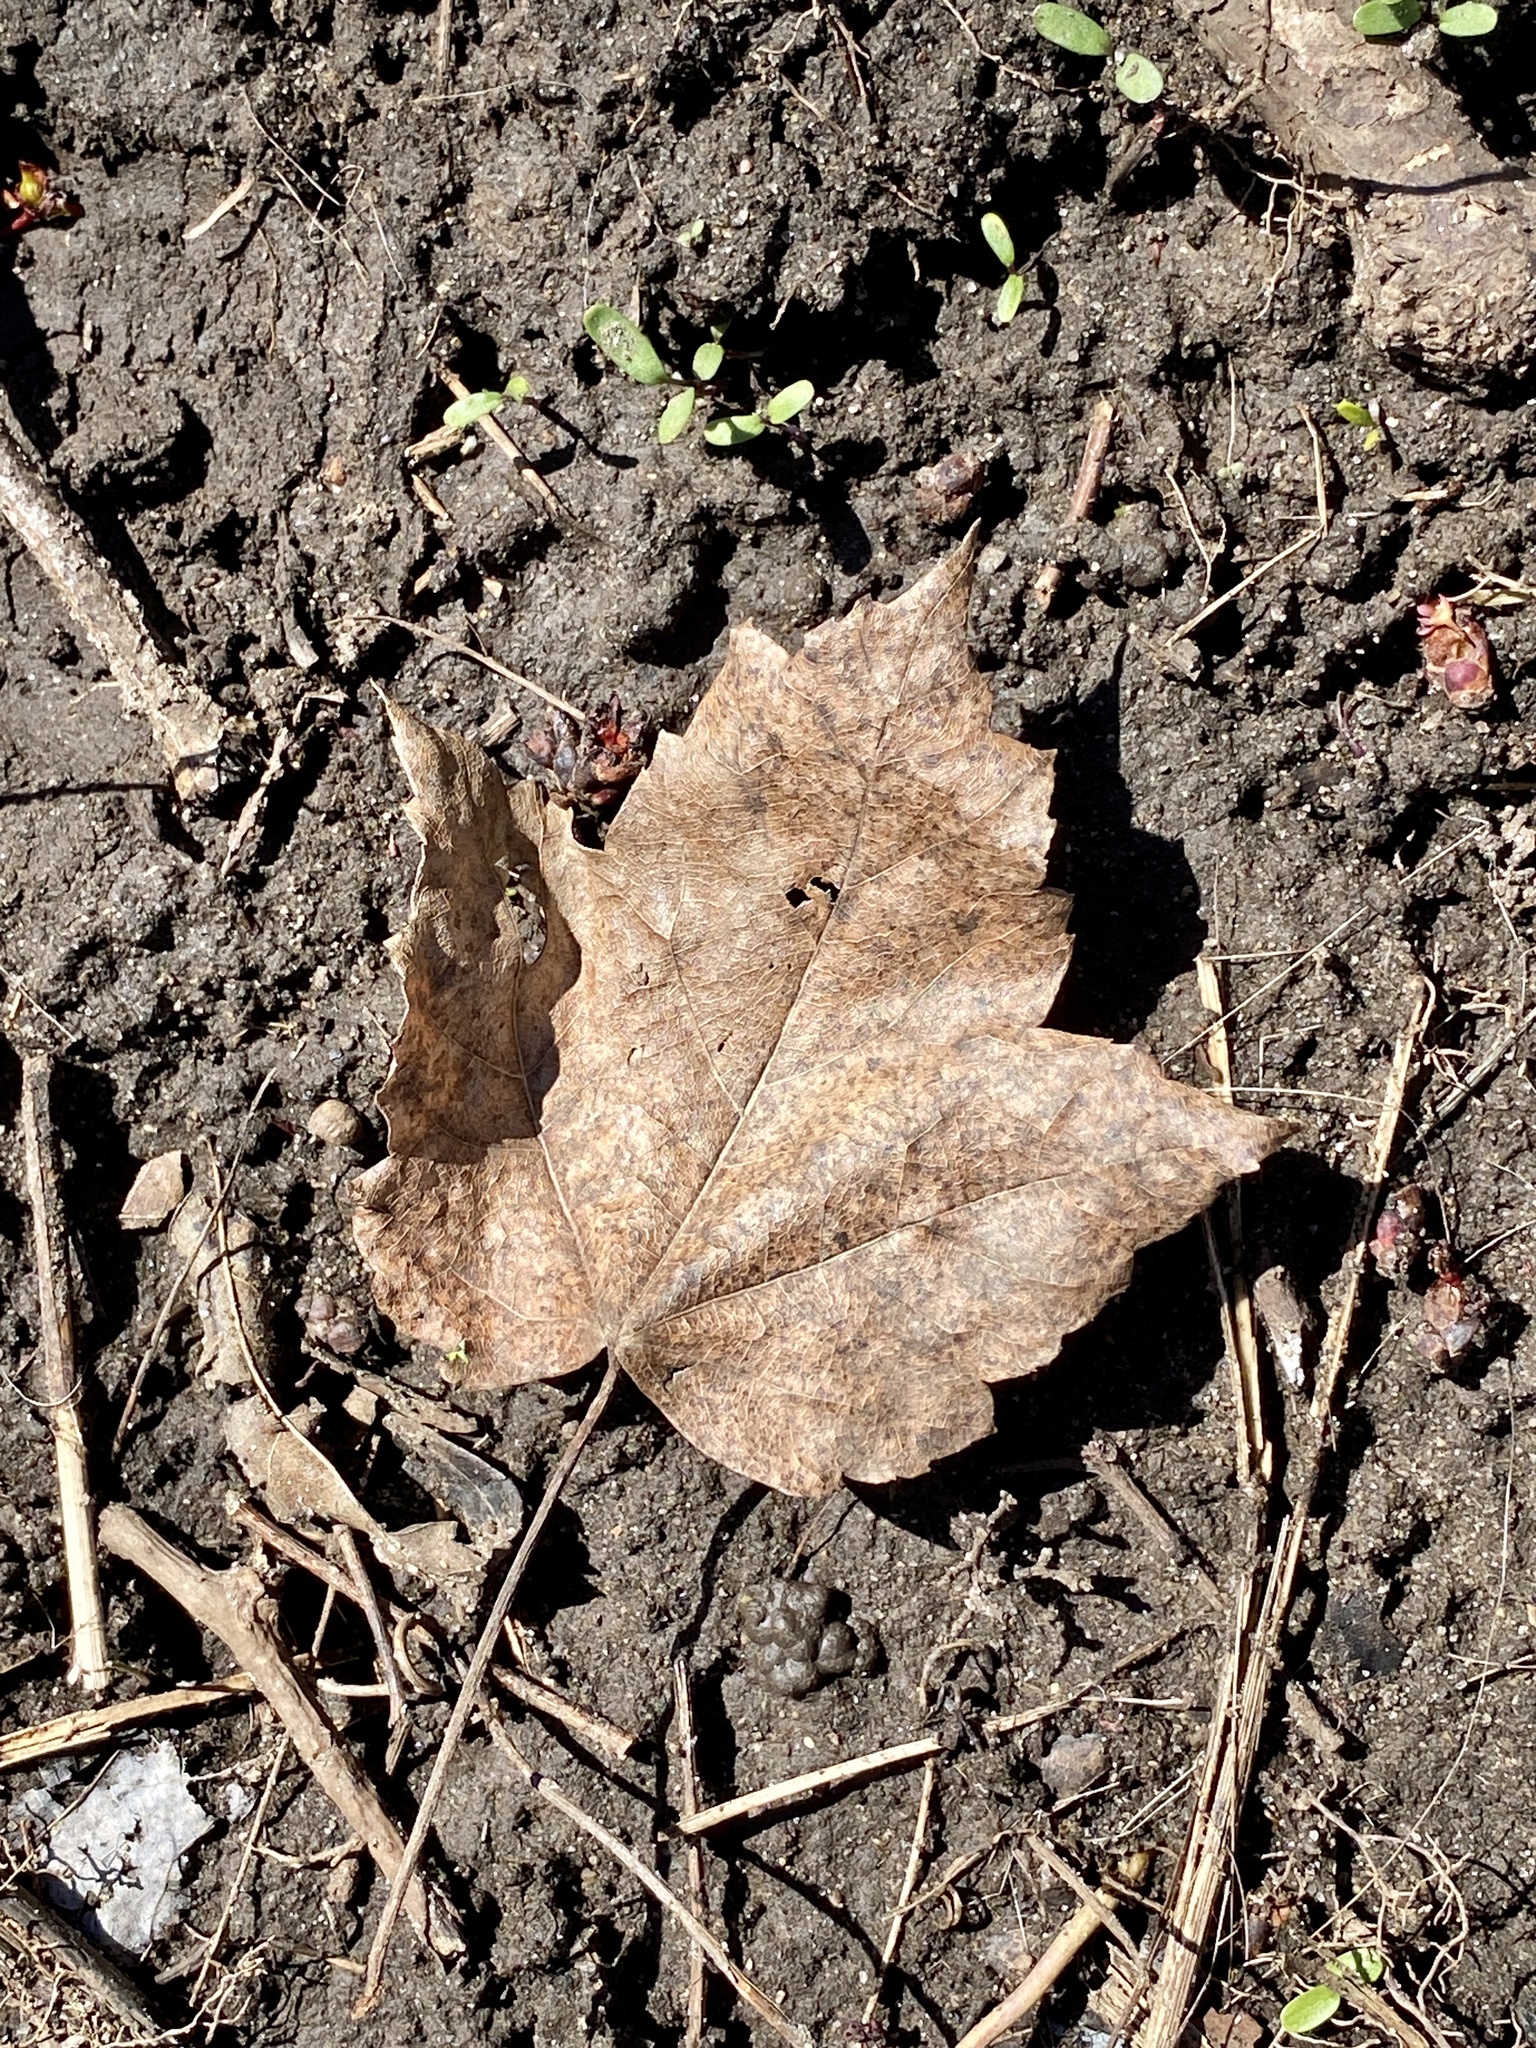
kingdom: Plantae
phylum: Tracheophyta
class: Magnoliopsida
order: Sapindales
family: Sapindaceae
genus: Acer
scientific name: Acer rubrum
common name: Red maple
